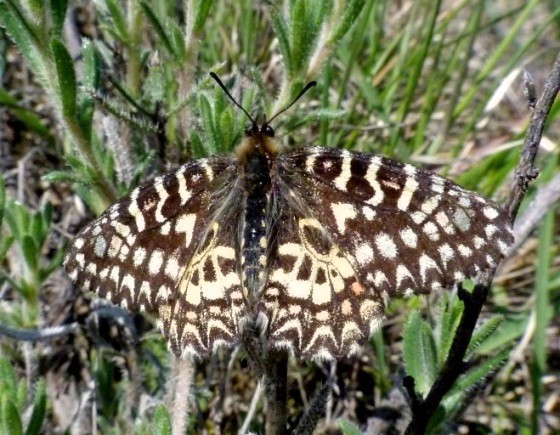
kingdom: Animalia
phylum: Arthropoda
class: Insecta
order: Lepidoptera
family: Papilionidae
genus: Zerynthia
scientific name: Zerynthia rumina
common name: Spanish festoon
